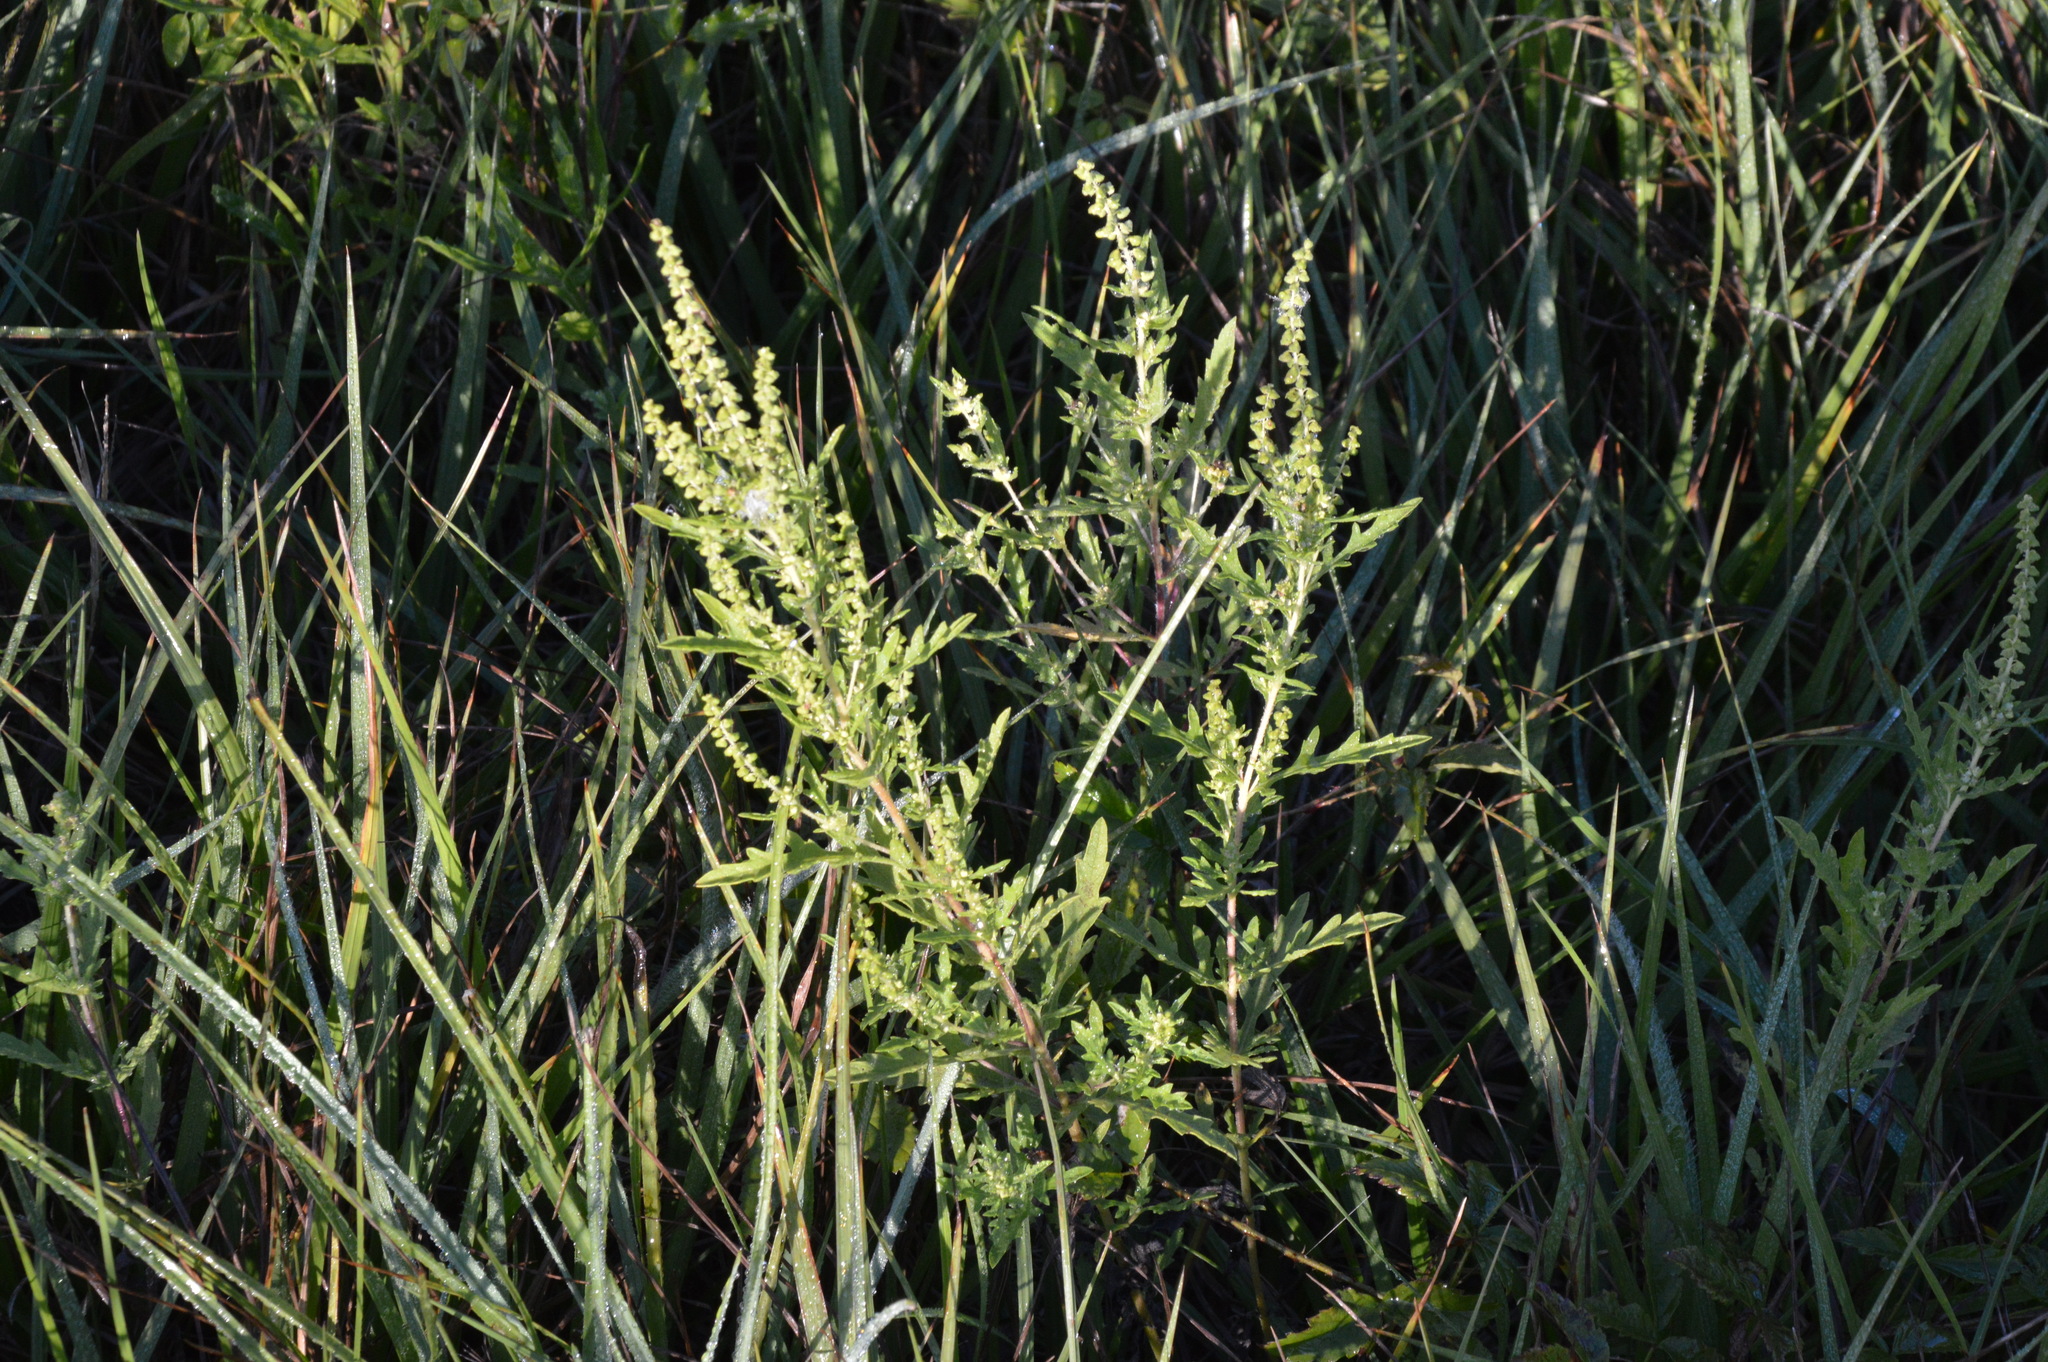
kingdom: Plantae
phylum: Tracheophyta
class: Magnoliopsida
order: Asterales
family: Asteraceae
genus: Ambrosia
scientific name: Ambrosia psilostachya
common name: Perennial ragweed
